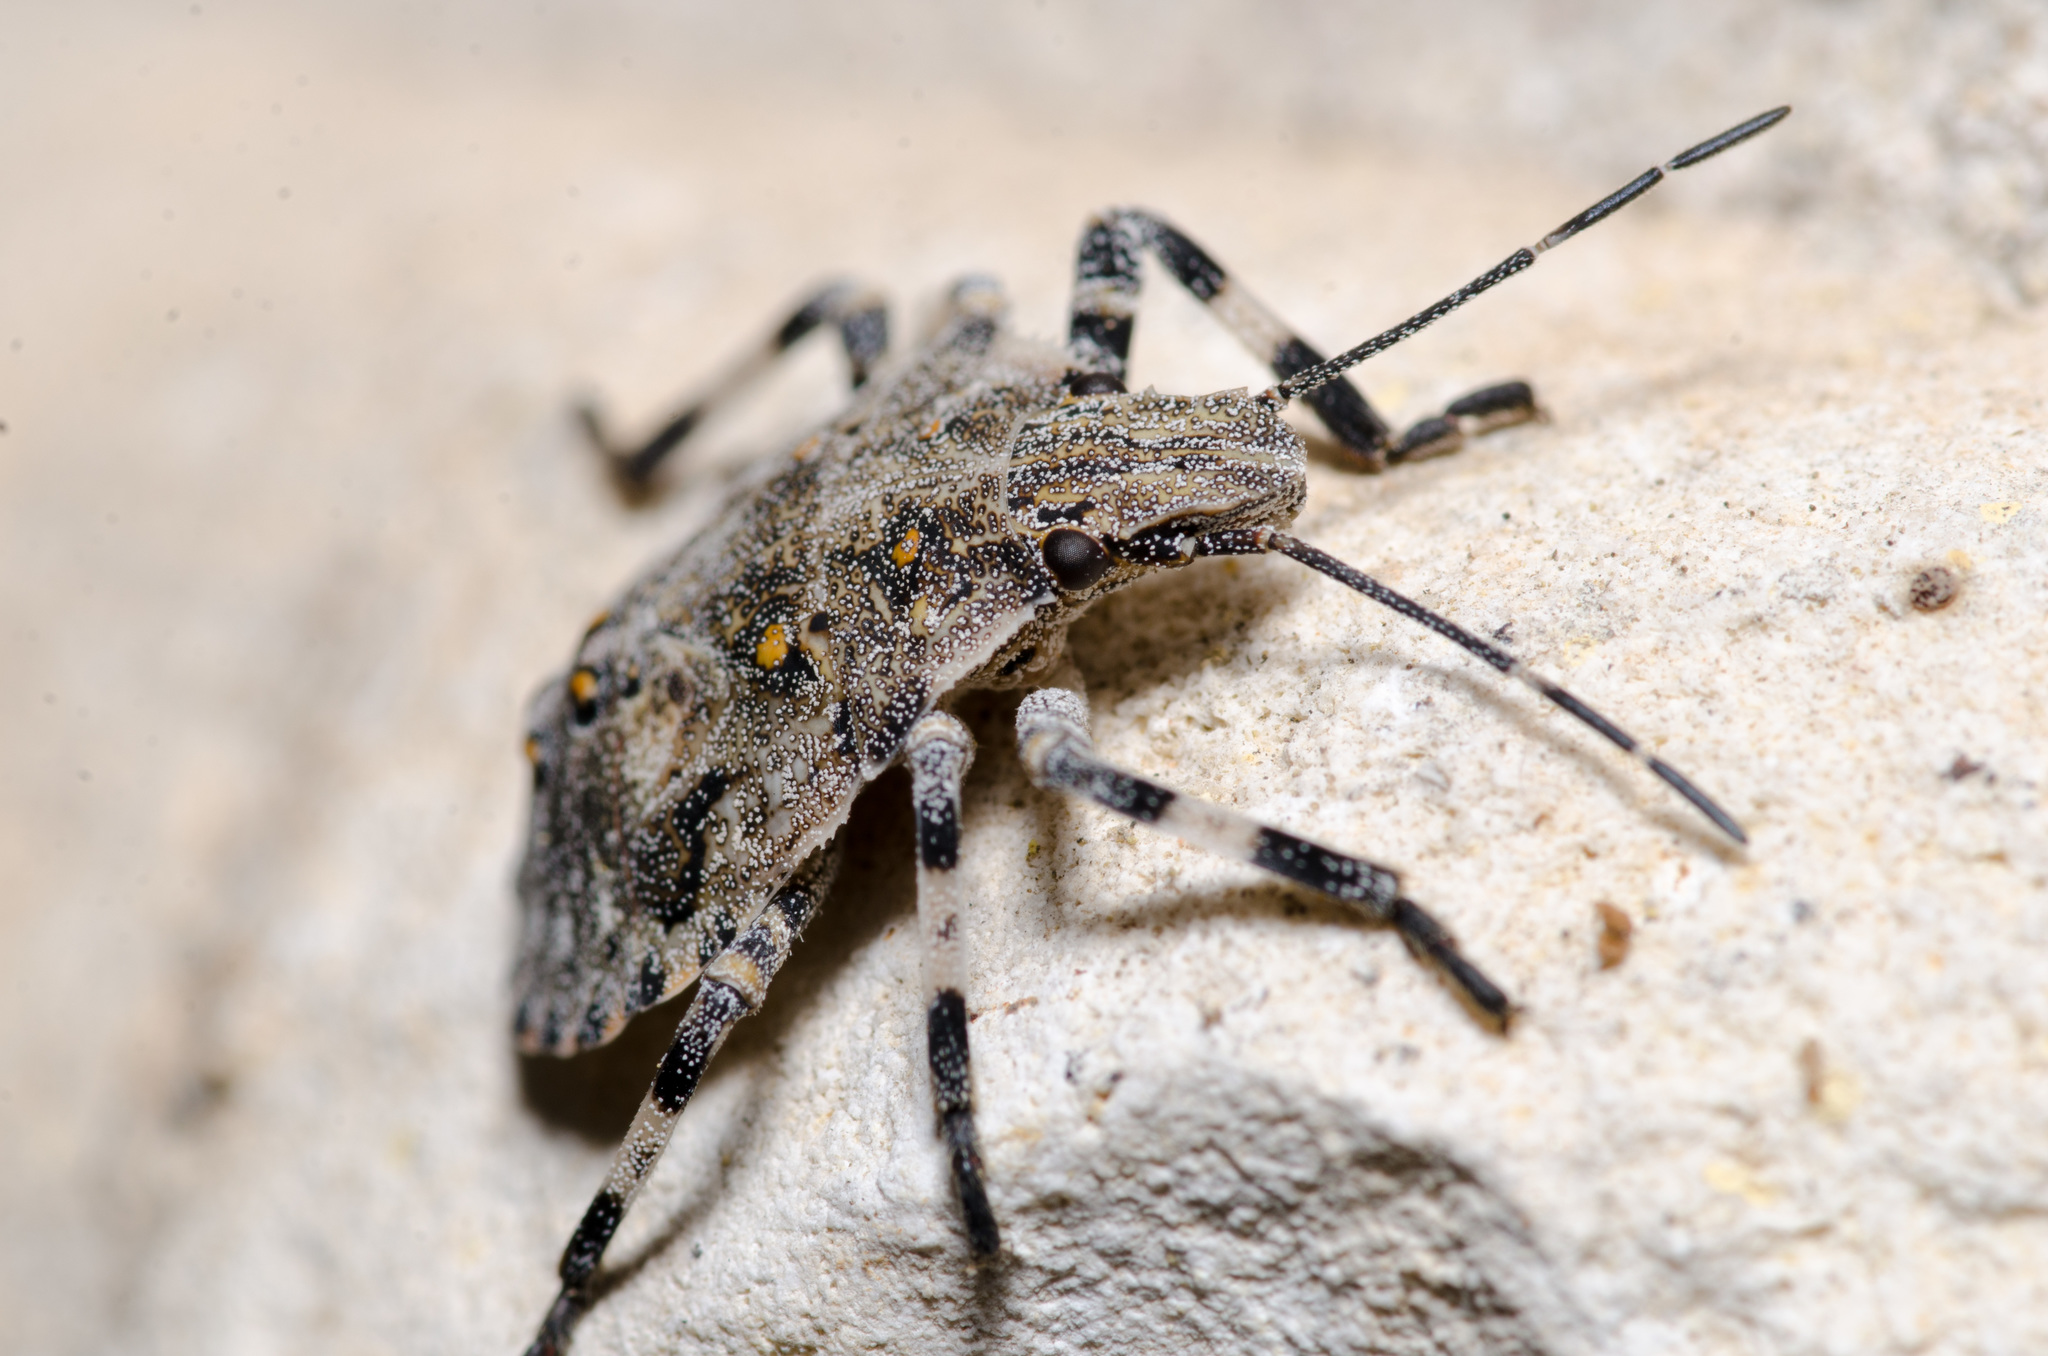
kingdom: Animalia
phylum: Arthropoda
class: Insecta
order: Hemiptera
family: Pentatomidae
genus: Brochymena
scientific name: Brochymena
